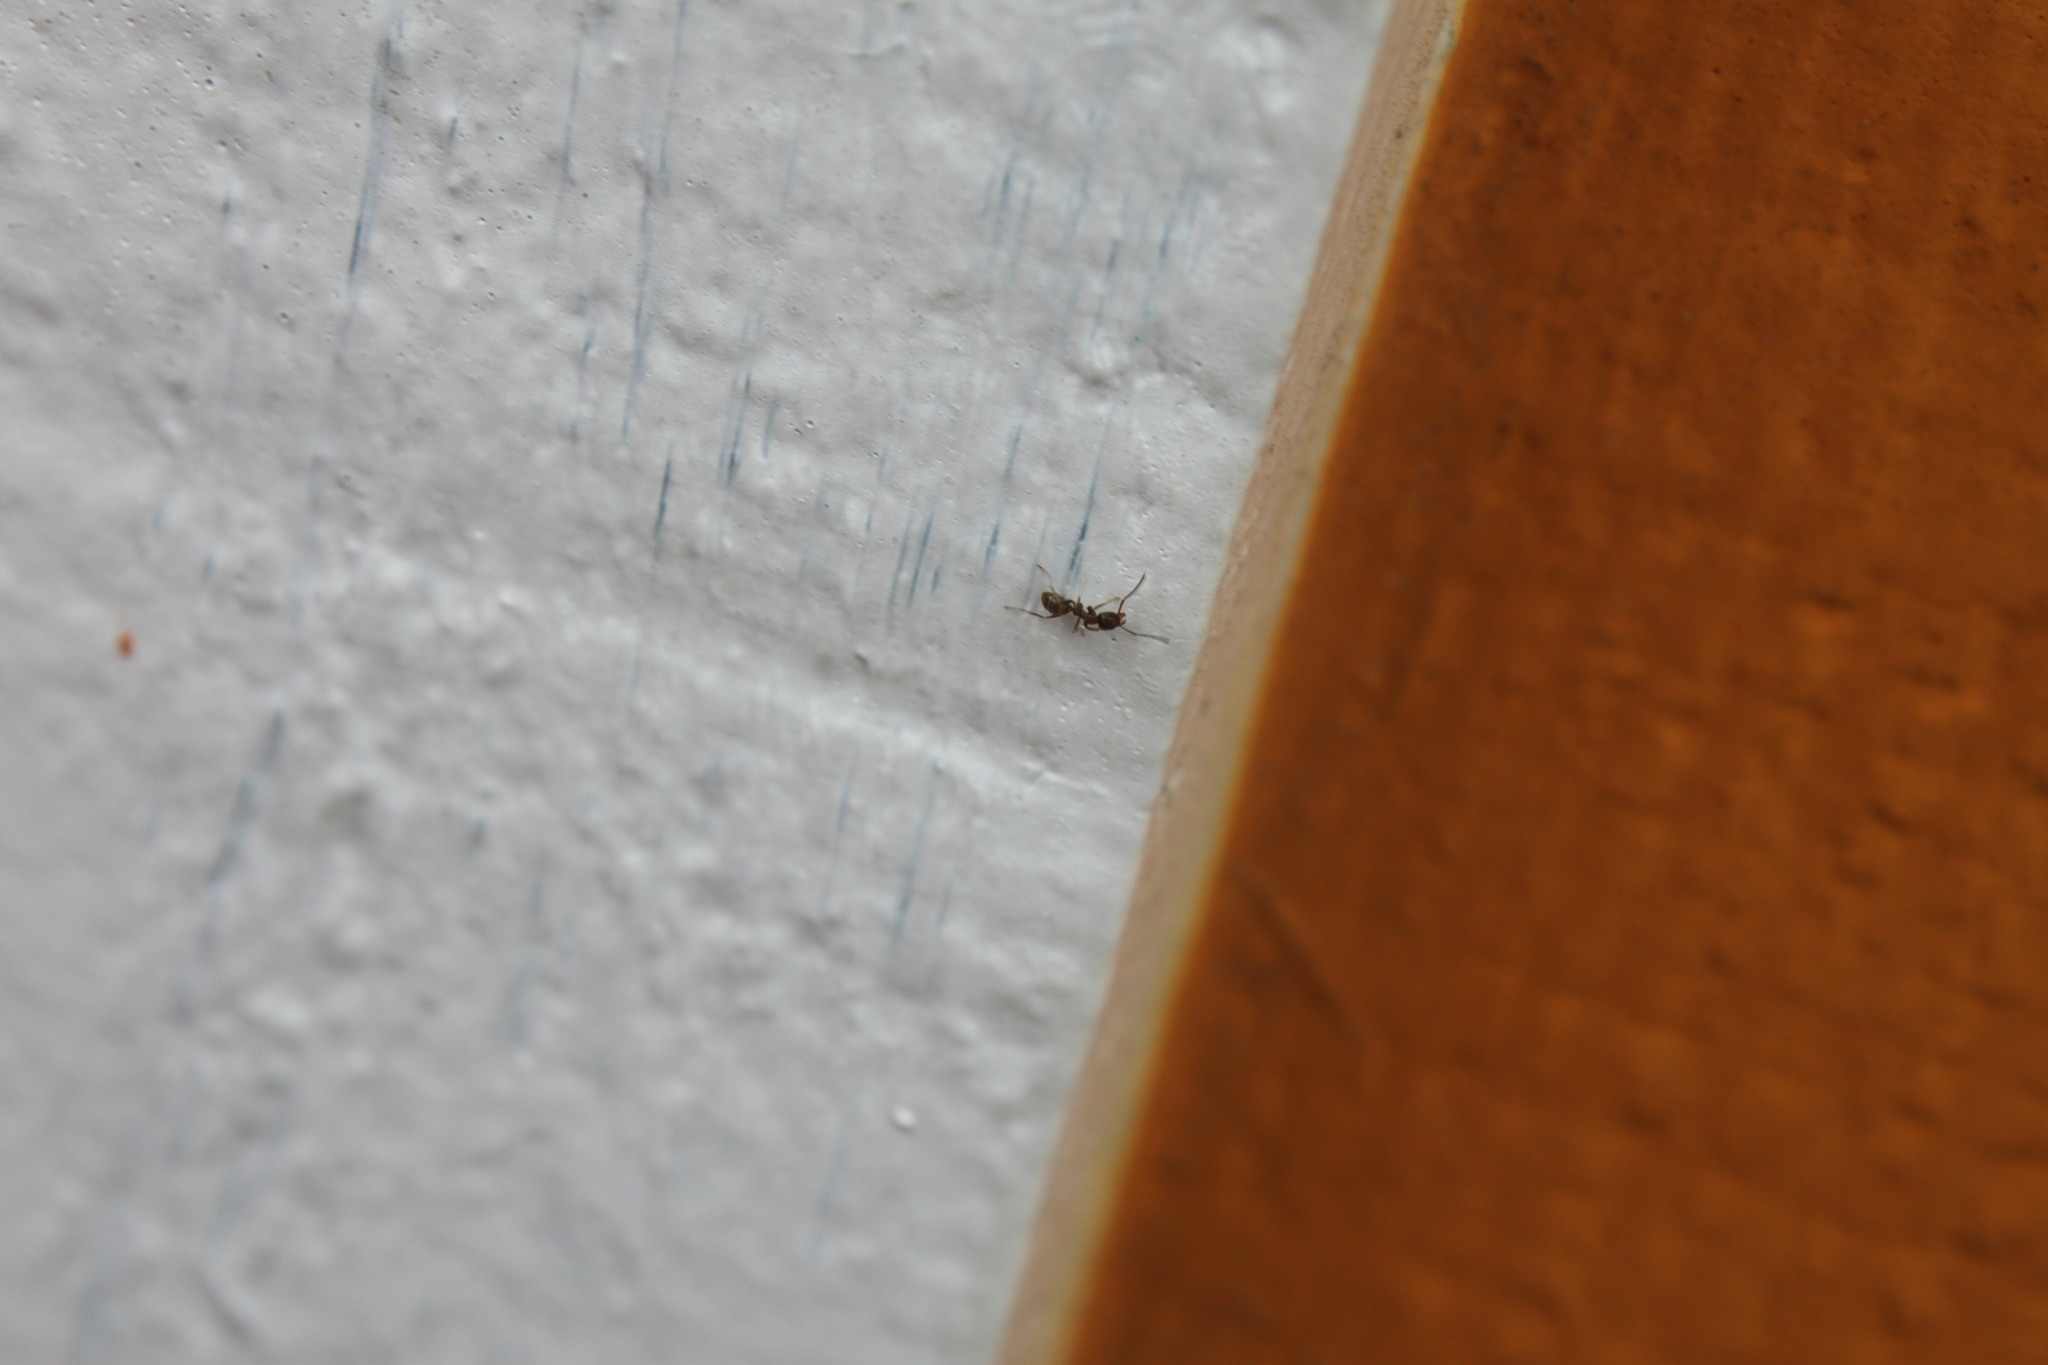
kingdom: Animalia
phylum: Arthropoda
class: Insecta
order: Hymenoptera
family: Formicidae
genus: Linepithema
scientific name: Linepithema humile
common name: Argentine ant
